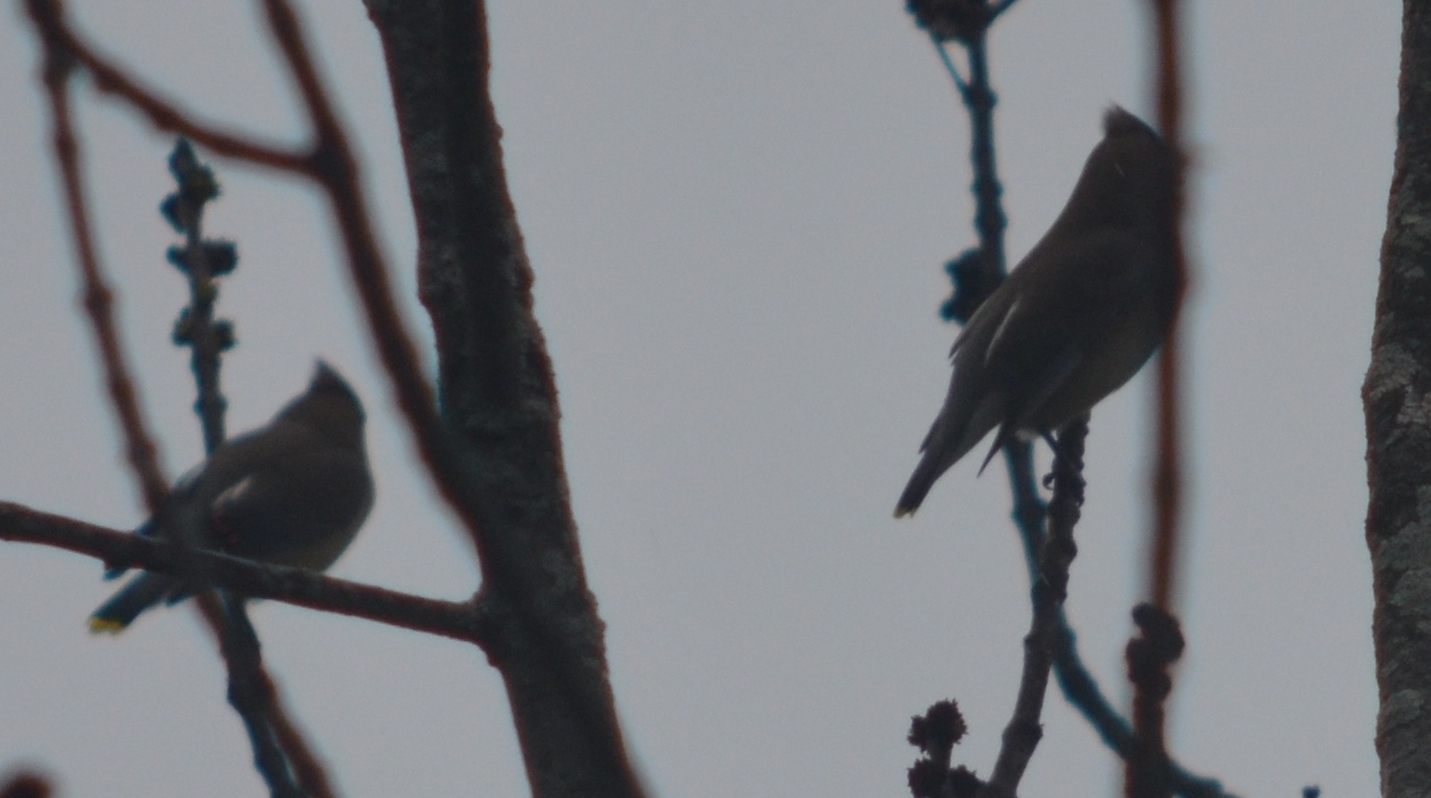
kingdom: Animalia
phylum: Chordata
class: Aves
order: Passeriformes
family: Bombycillidae
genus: Bombycilla
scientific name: Bombycilla cedrorum
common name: Cedar waxwing
